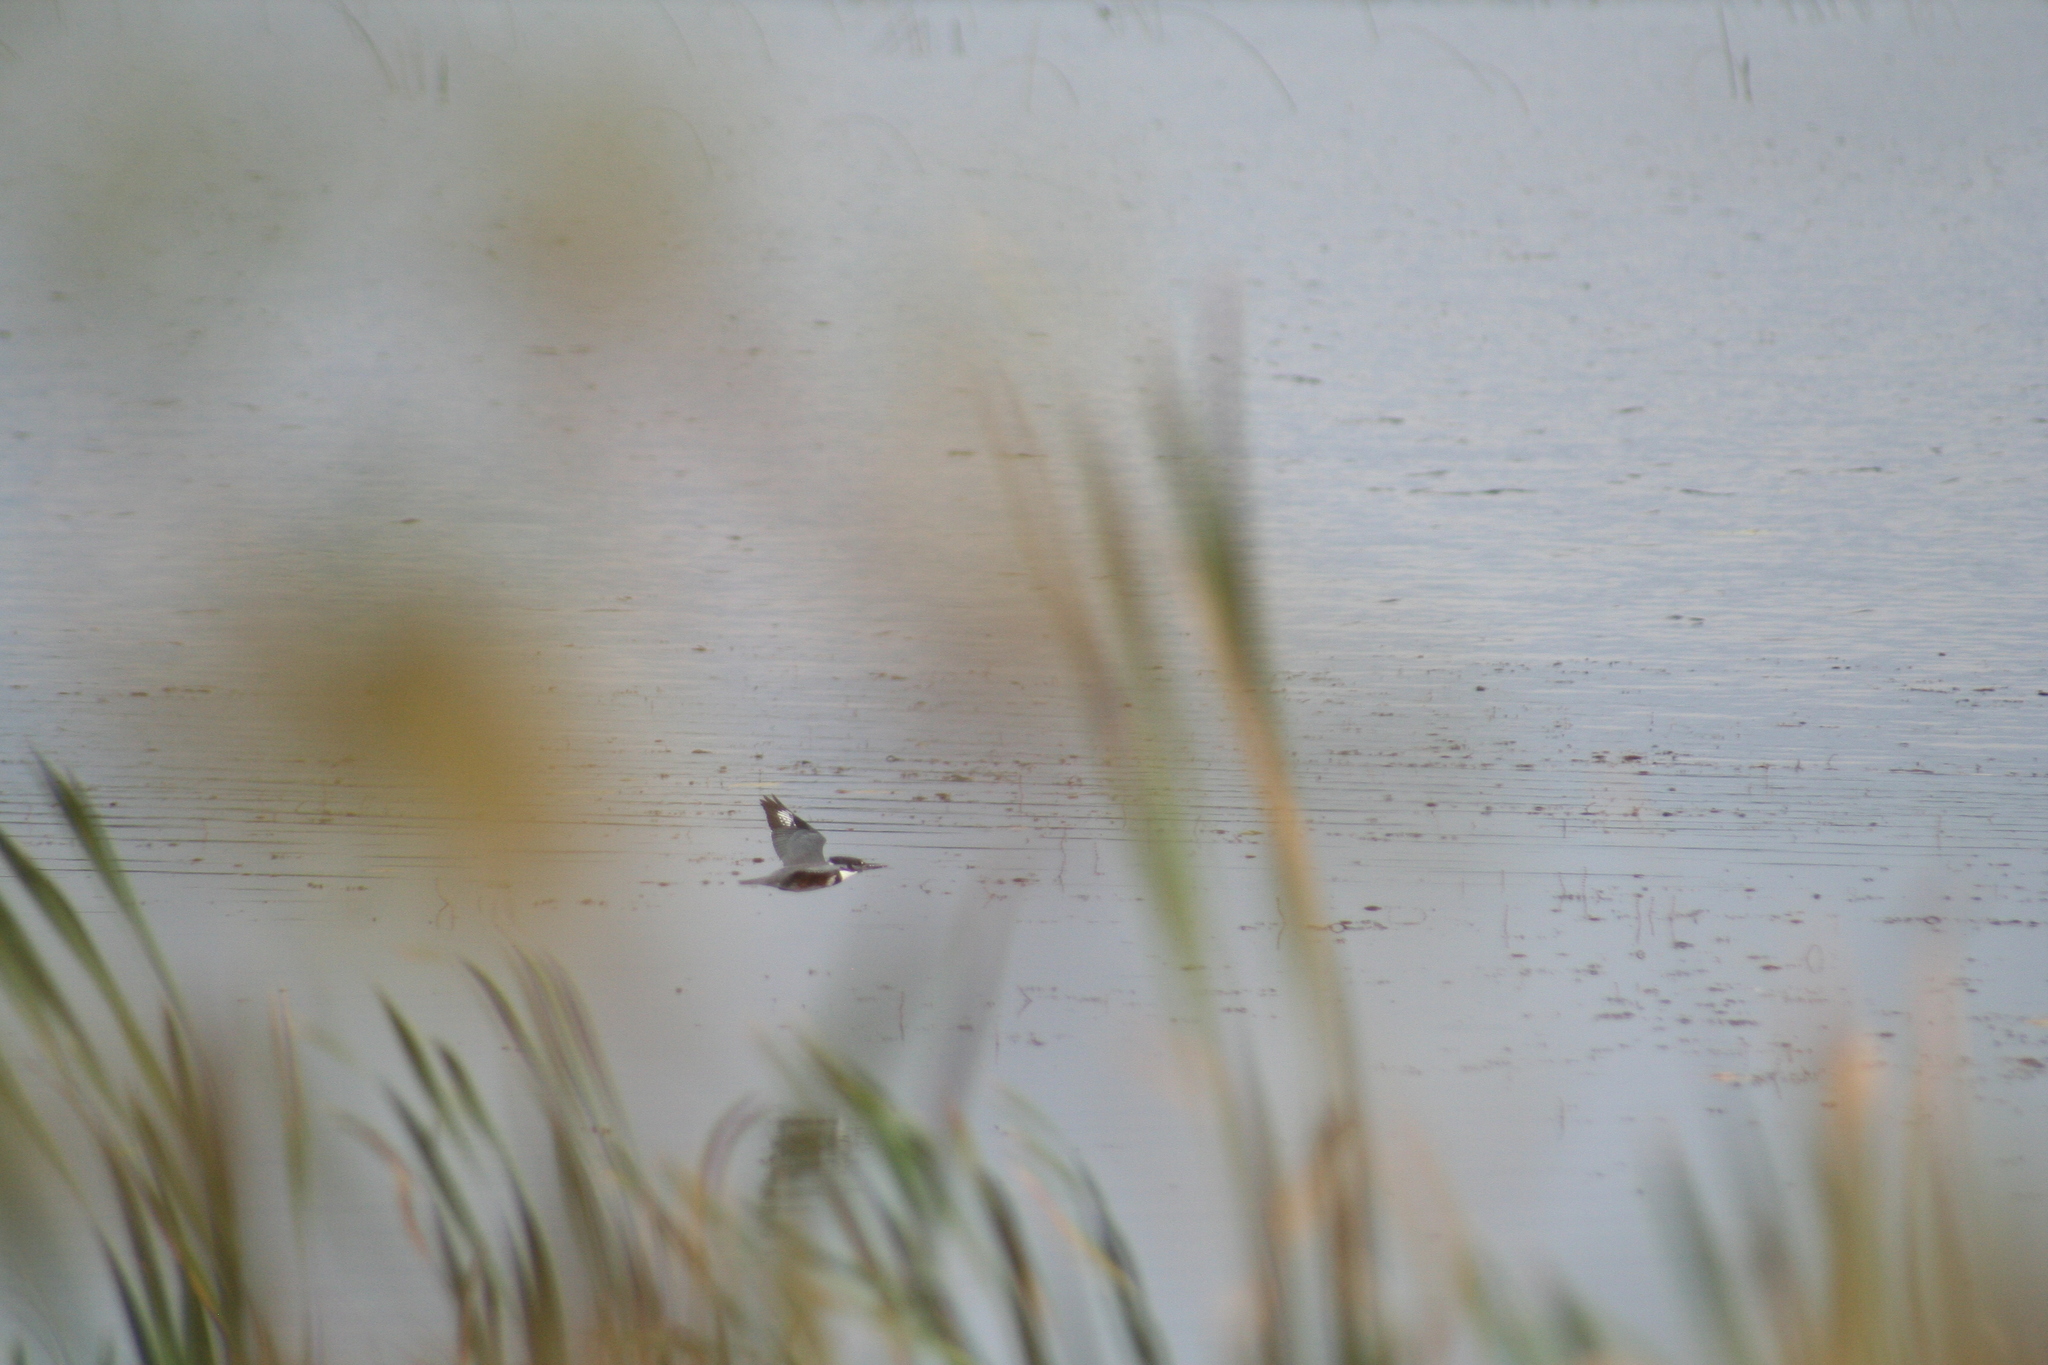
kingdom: Animalia
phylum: Chordata
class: Aves
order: Coraciiformes
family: Alcedinidae
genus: Megaceryle
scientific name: Megaceryle alcyon
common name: Belted kingfisher
